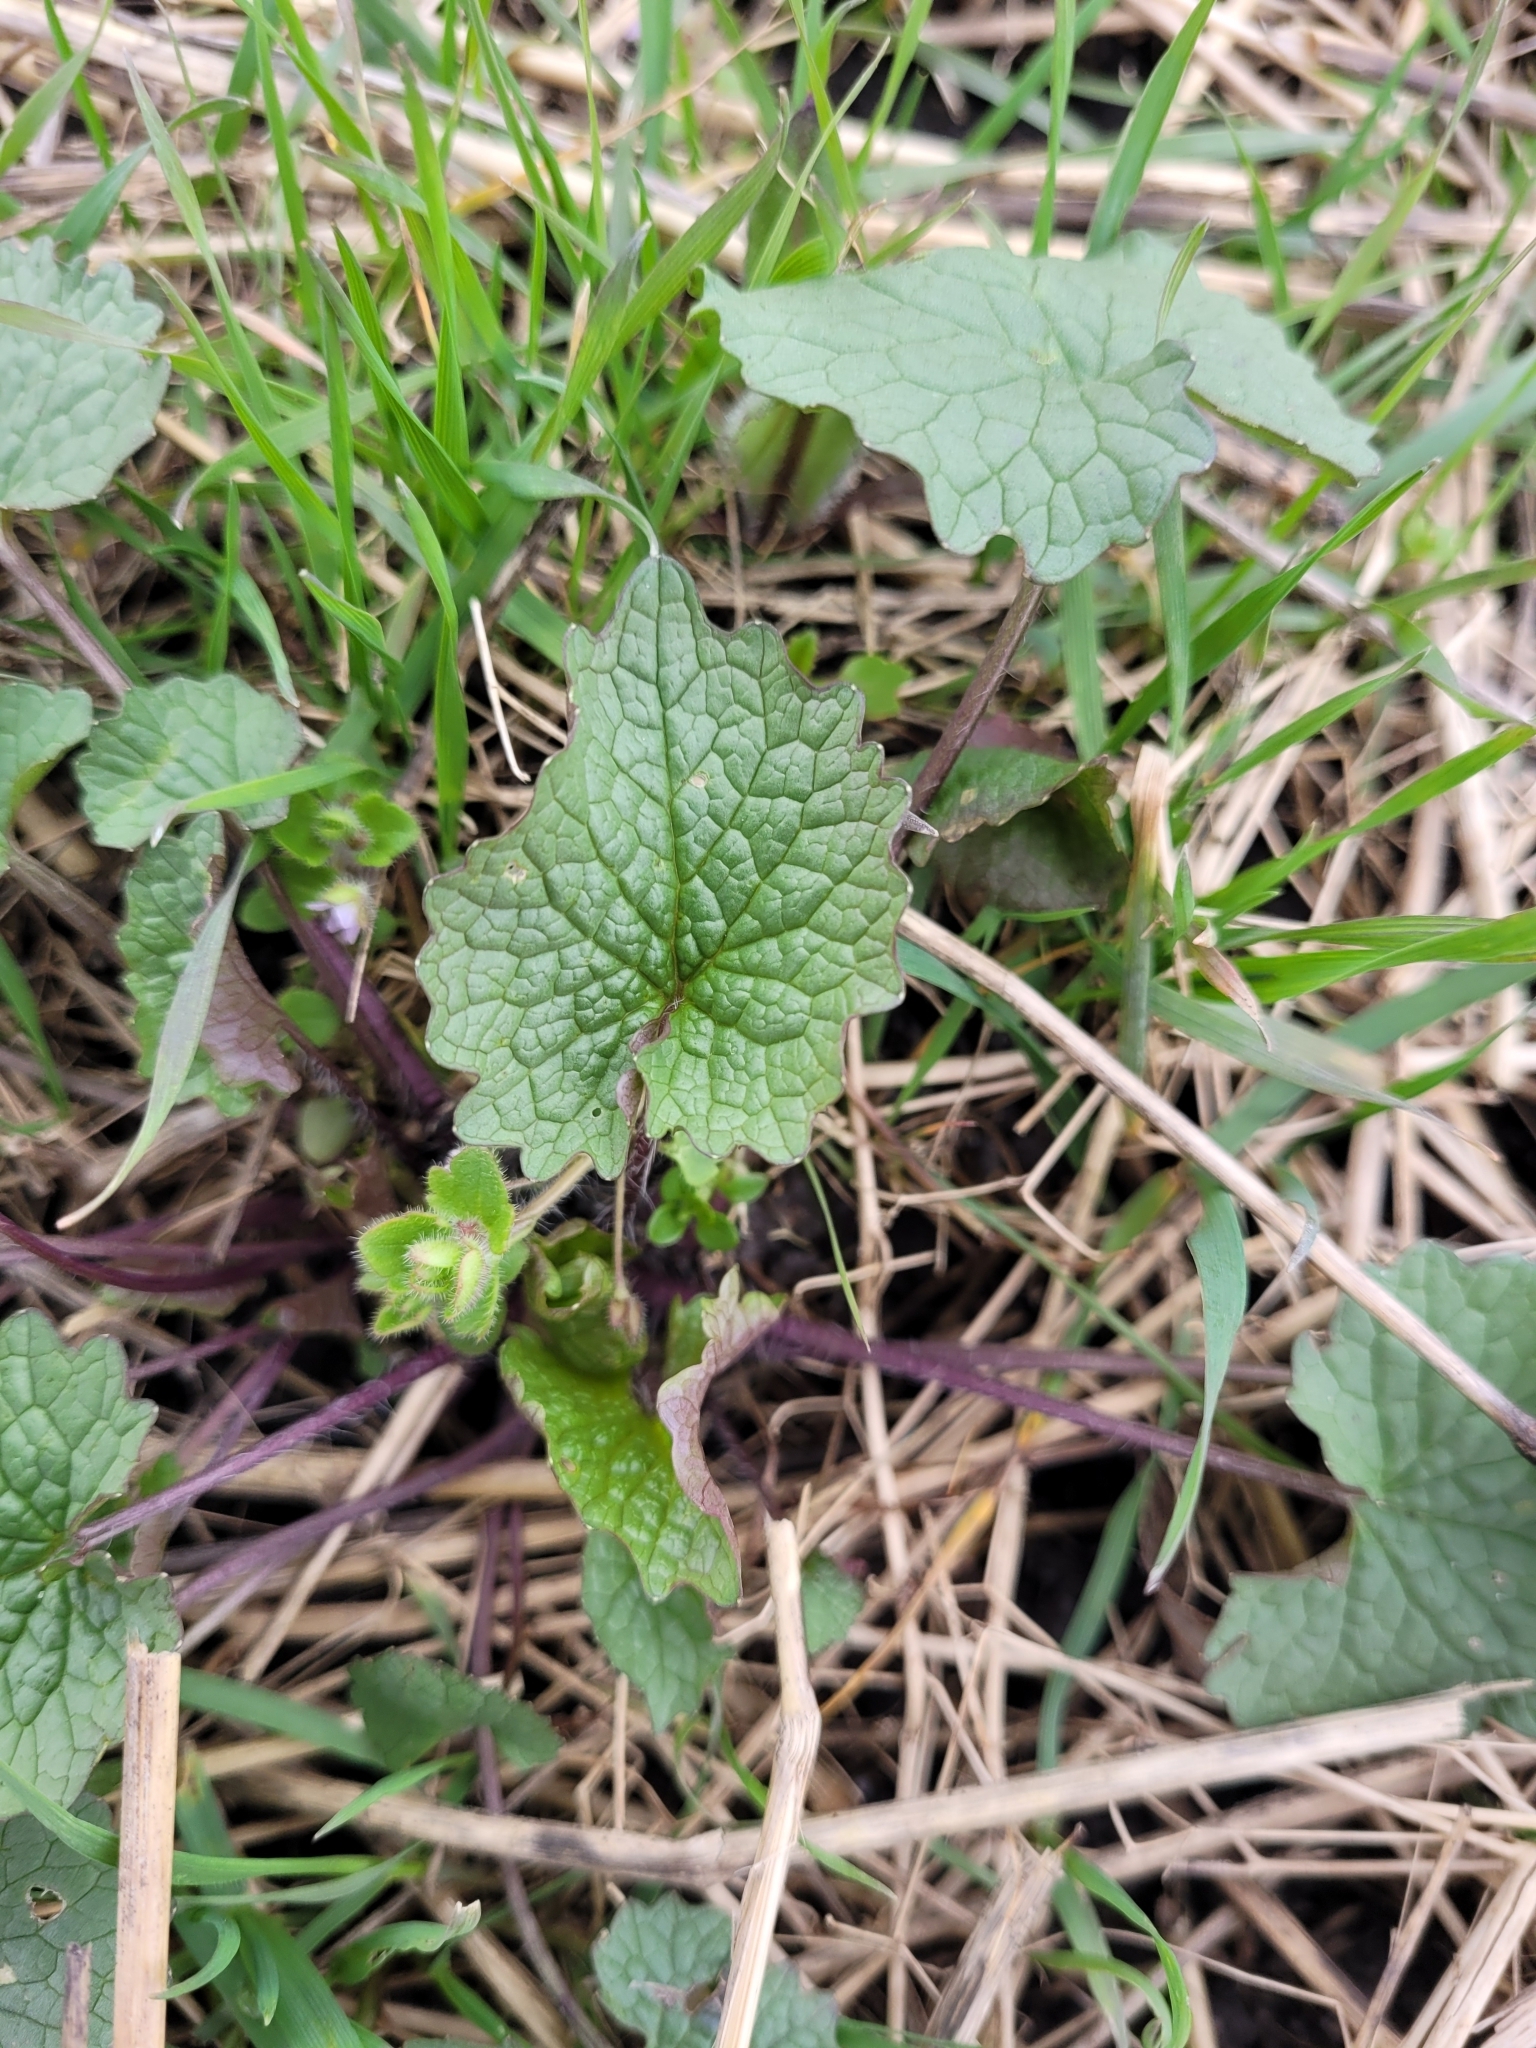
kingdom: Plantae
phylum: Tracheophyta
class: Magnoliopsida
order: Brassicales
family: Brassicaceae
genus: Alliaria
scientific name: Alliaria petiolata
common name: Garlic mustard
